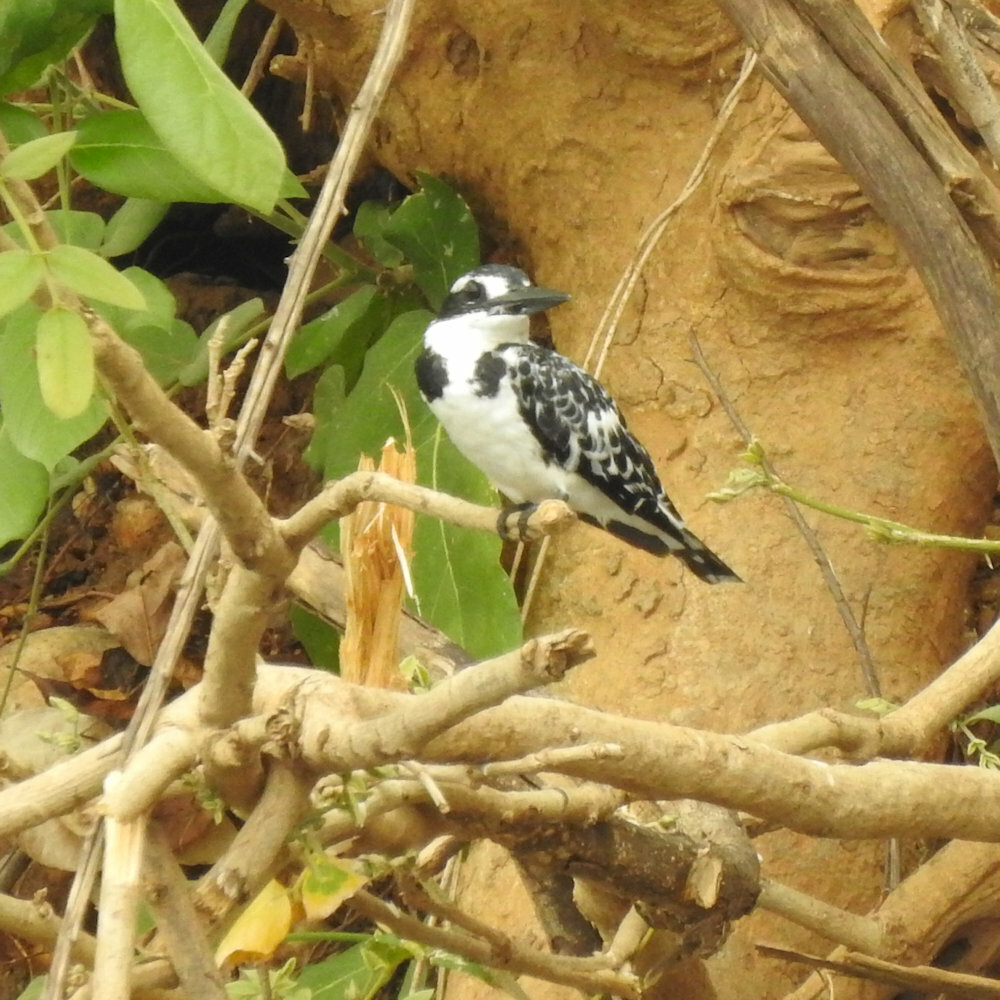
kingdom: Animalia
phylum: Chordata
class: Aves
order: Coraciiformes
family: Alcedinidae
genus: Ceryle
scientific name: Ceryle rudis
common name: Pied kingfisher
